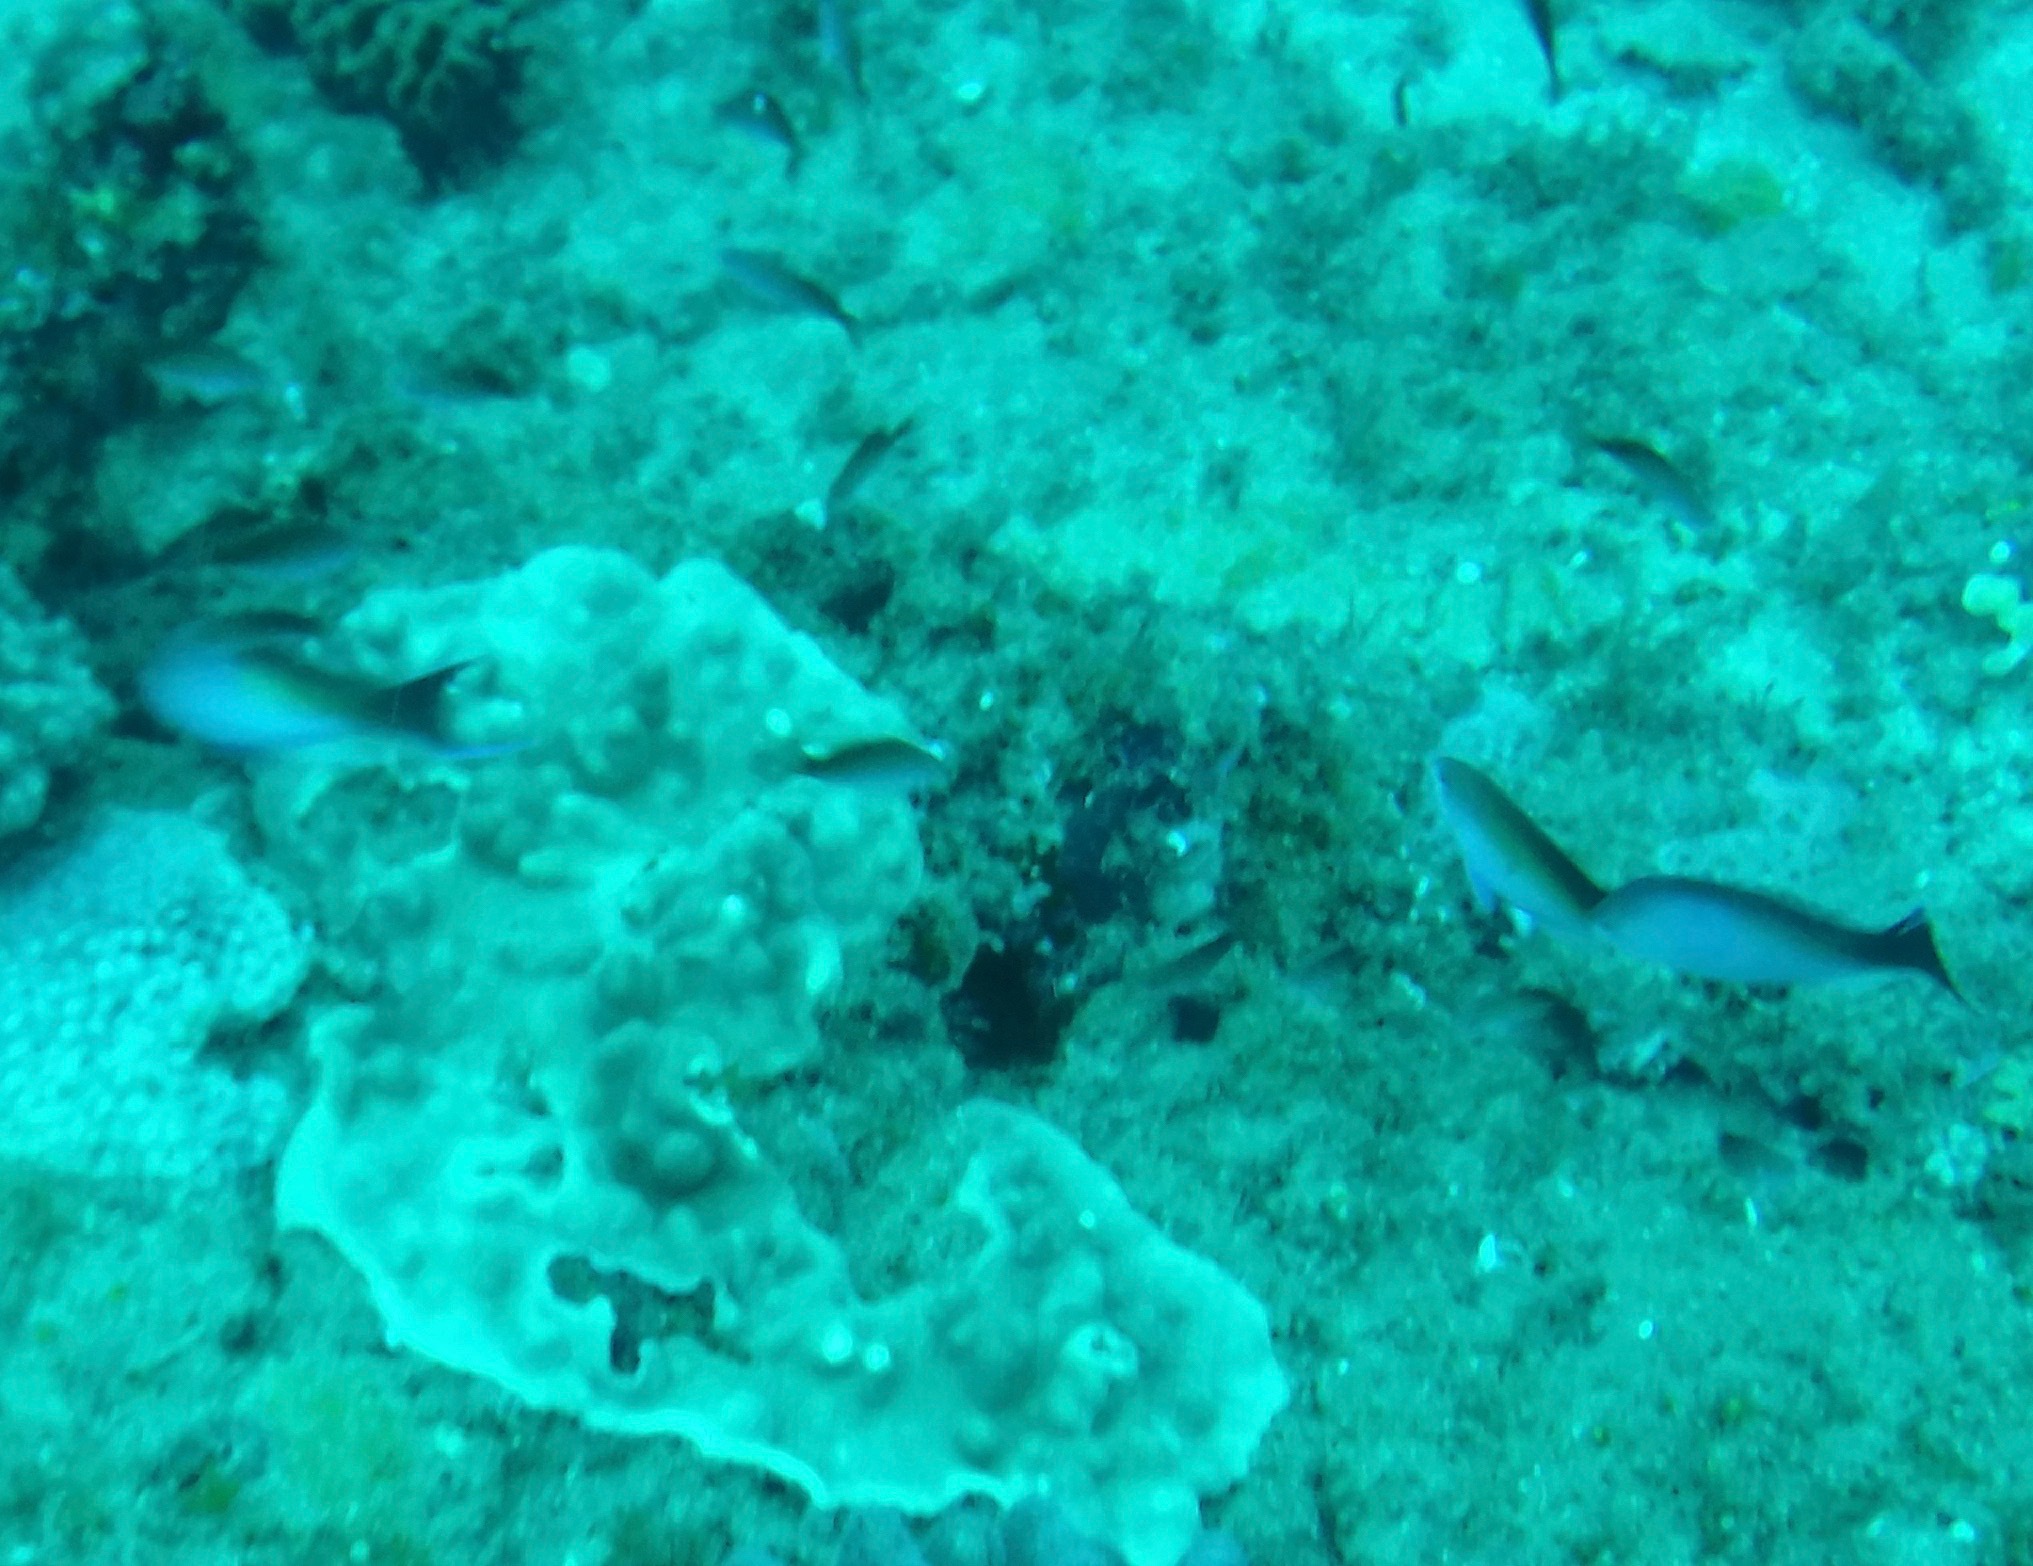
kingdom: Animalia
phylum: Chordata
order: Perciformes
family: Serranidae
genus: Pseudanthias
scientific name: Pseudanthias cooperi
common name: Red basslet
